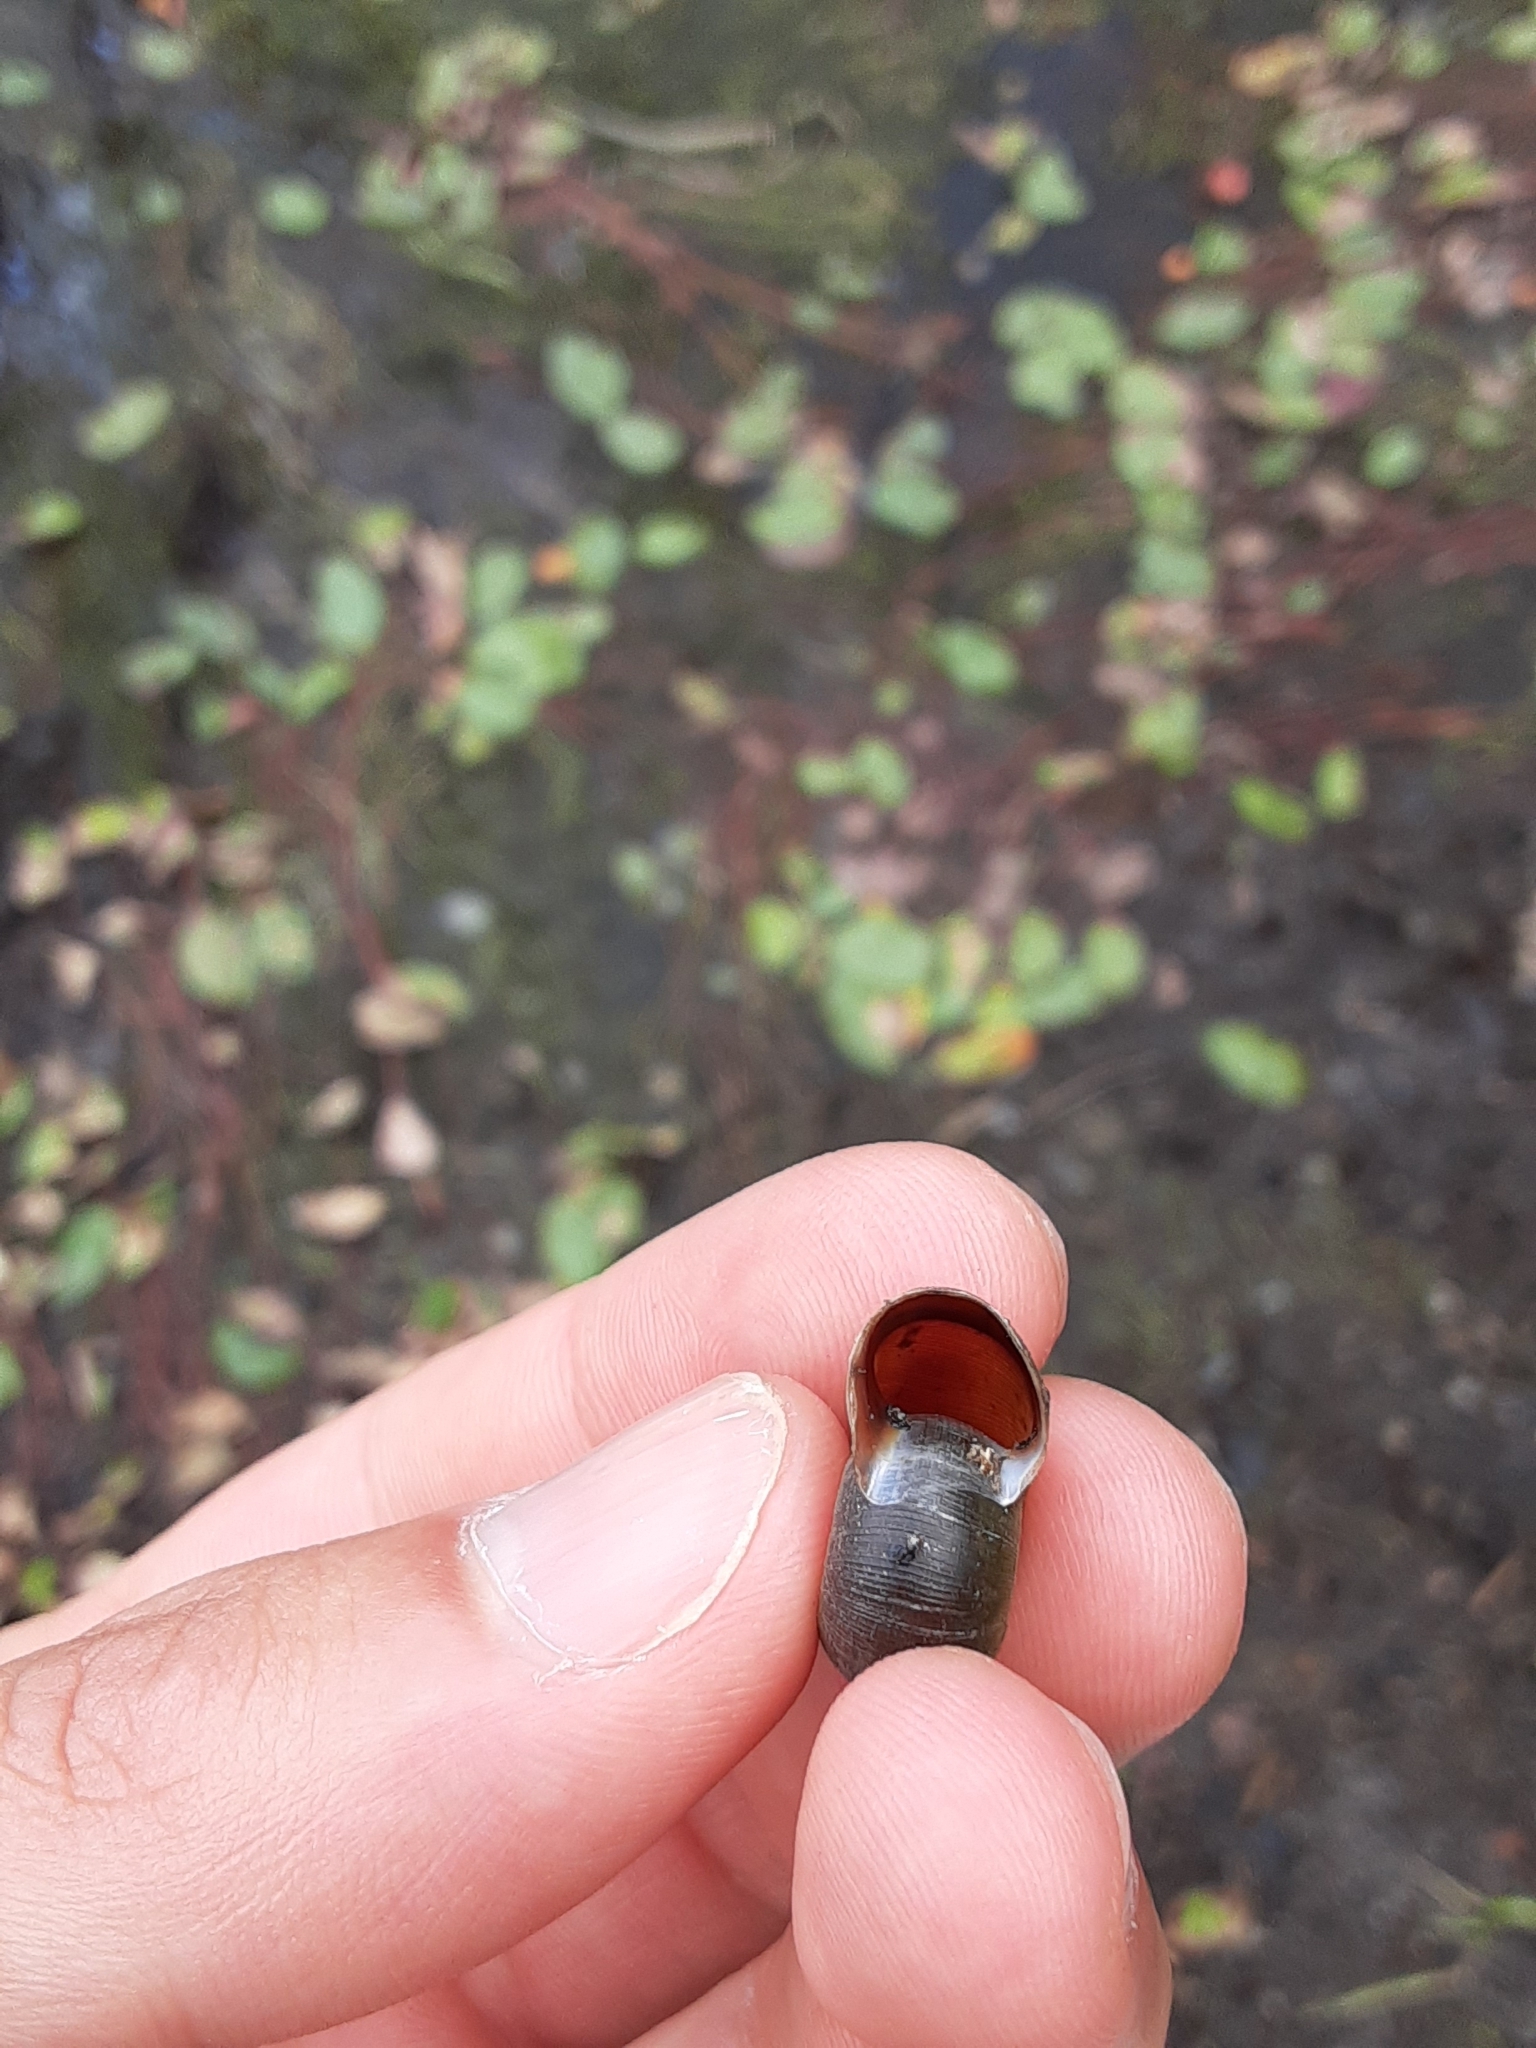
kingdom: Animalia
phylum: Mollusca
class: Gastropoda
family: Planorbidae
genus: Planorbella
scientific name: Planorbella trivolvis
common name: Marsh rams-horn
